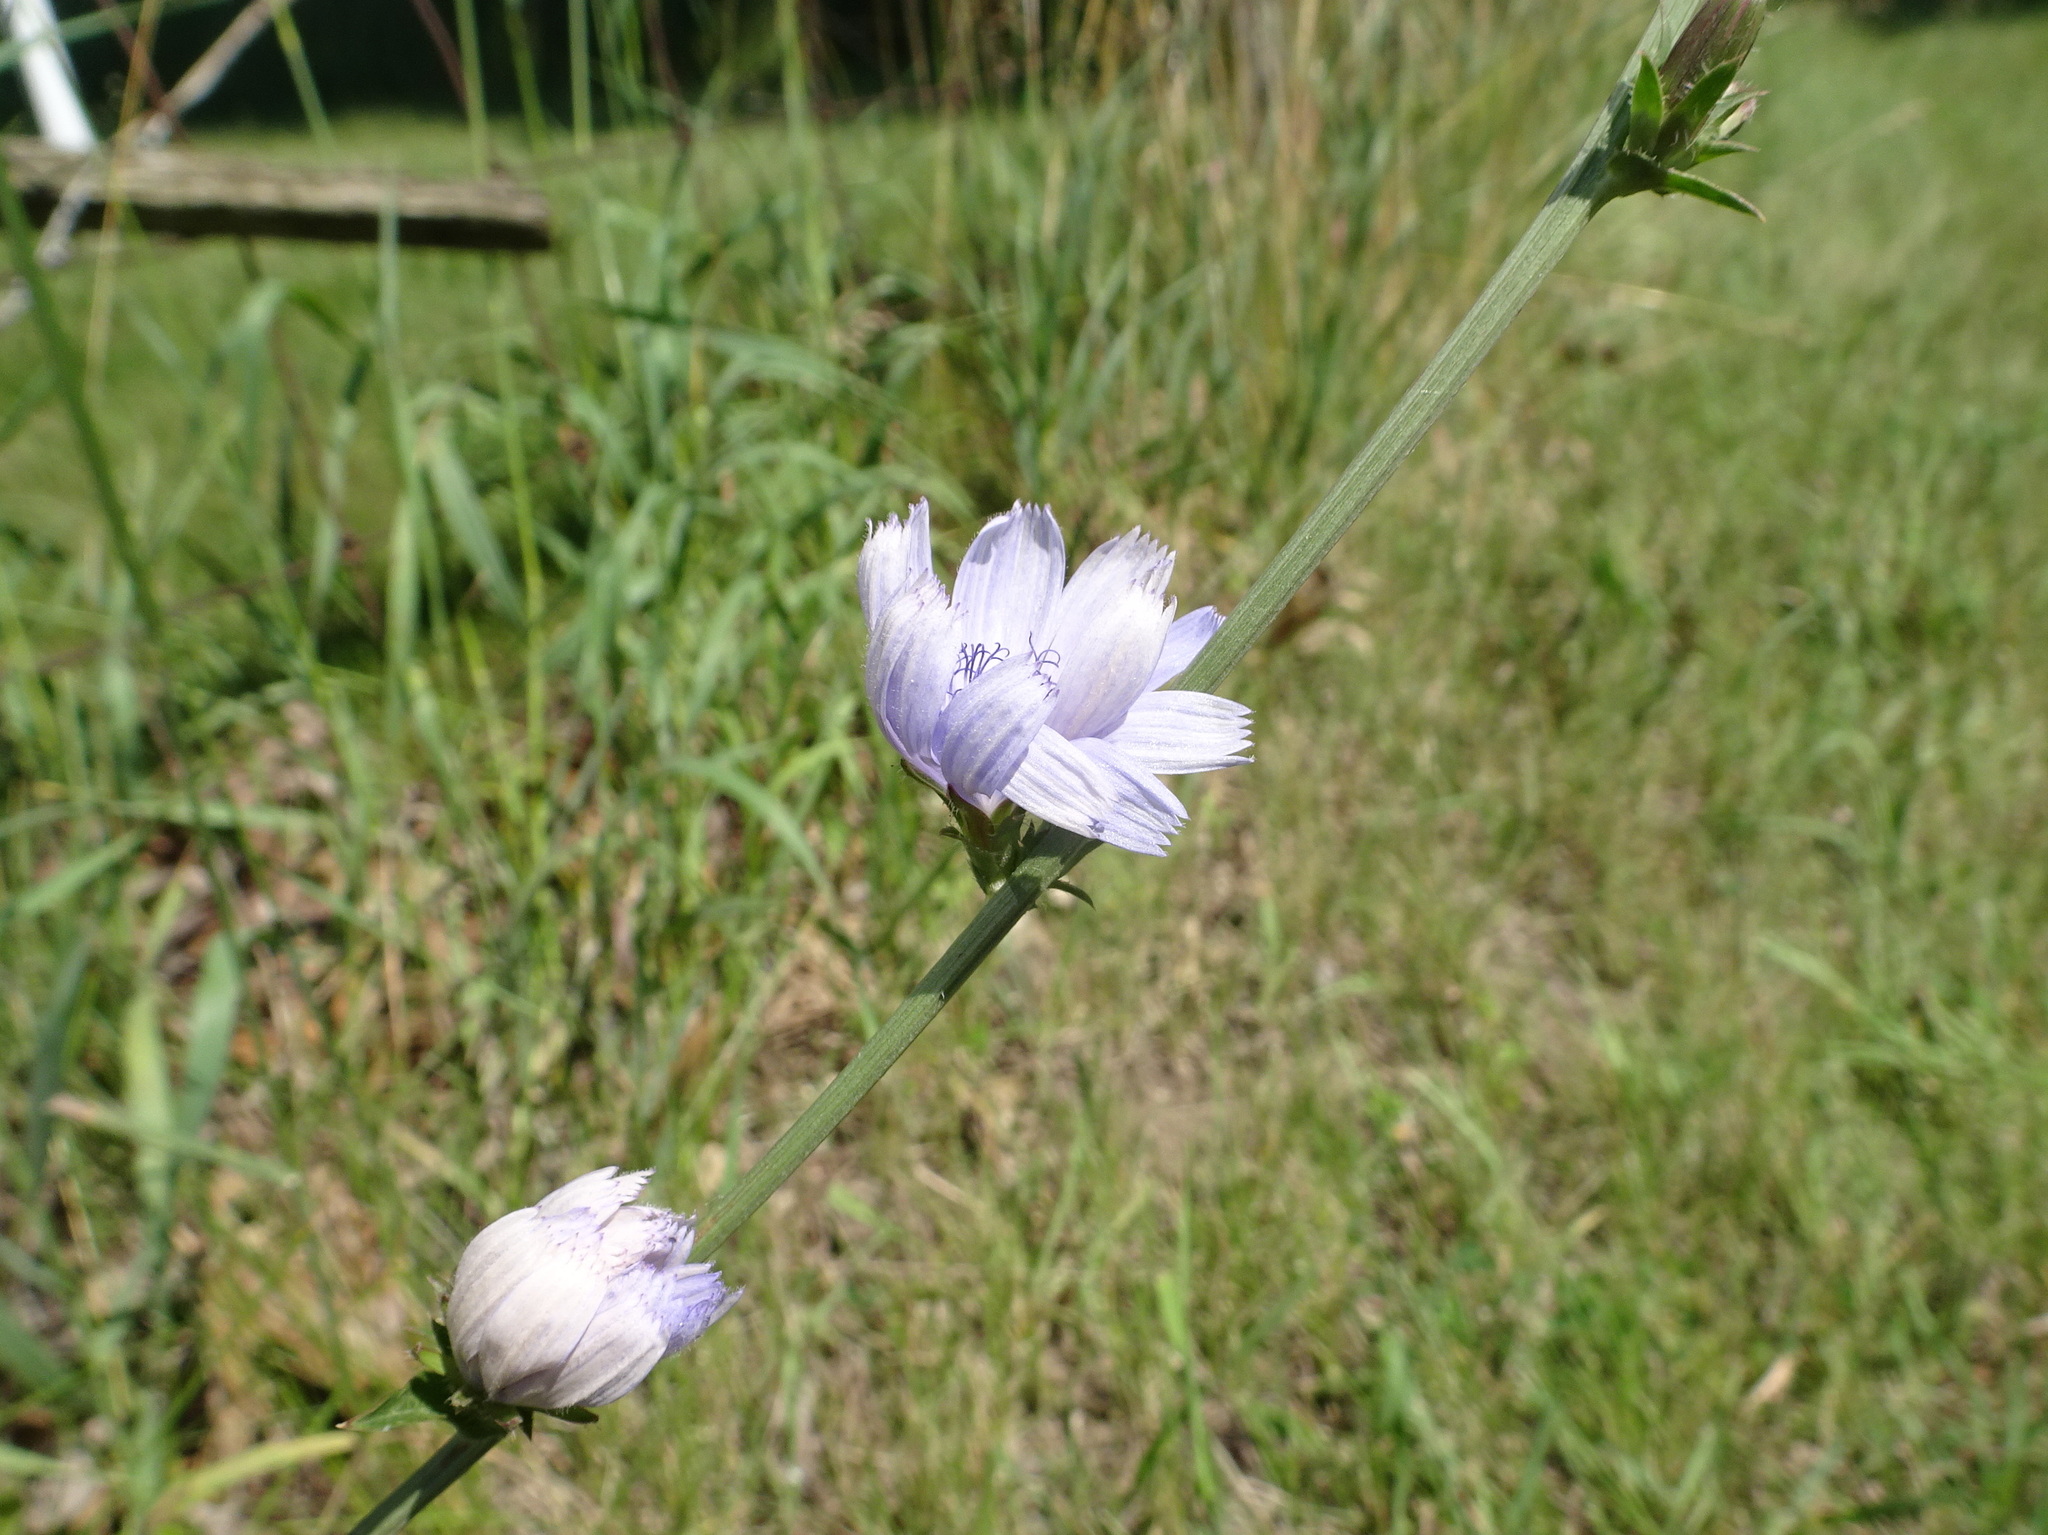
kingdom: Plantae
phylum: Tracheophyta
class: Magnoliopsida
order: Asterales
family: Asteraceae
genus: Cichorium
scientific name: Cichorium intybus
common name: Chicory
